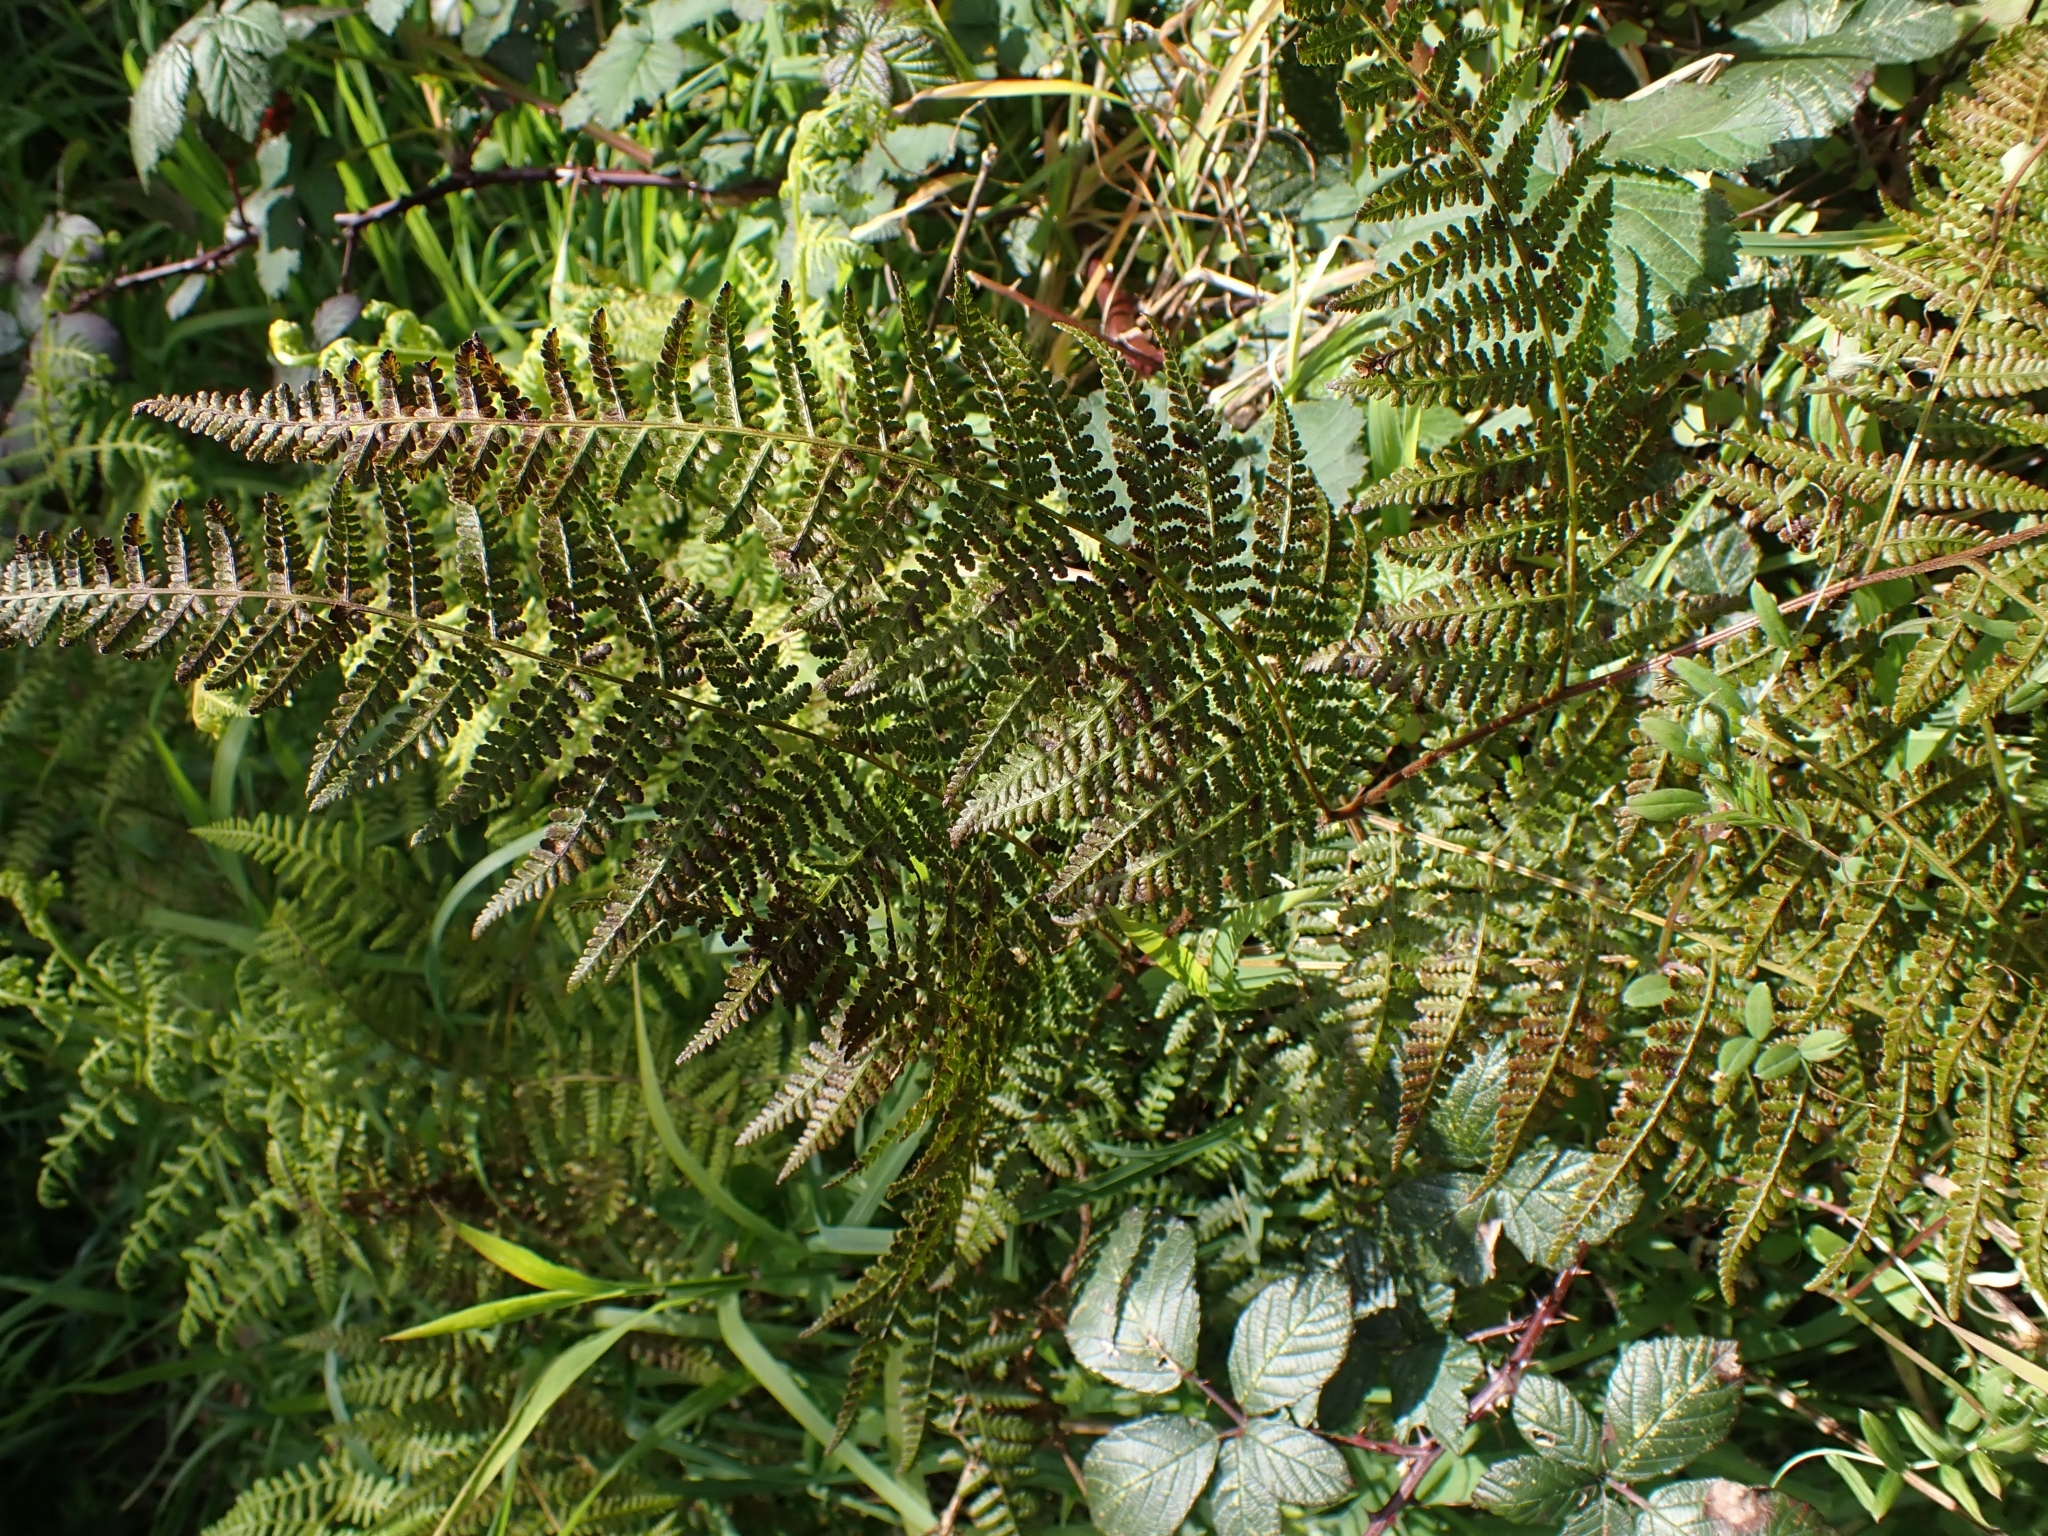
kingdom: Plantae
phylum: Tracheophyta
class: Polypodiopsida
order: Polypodiales
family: Dennstaedtiaceae
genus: Hypolepis
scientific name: Hypolepis ambigua
